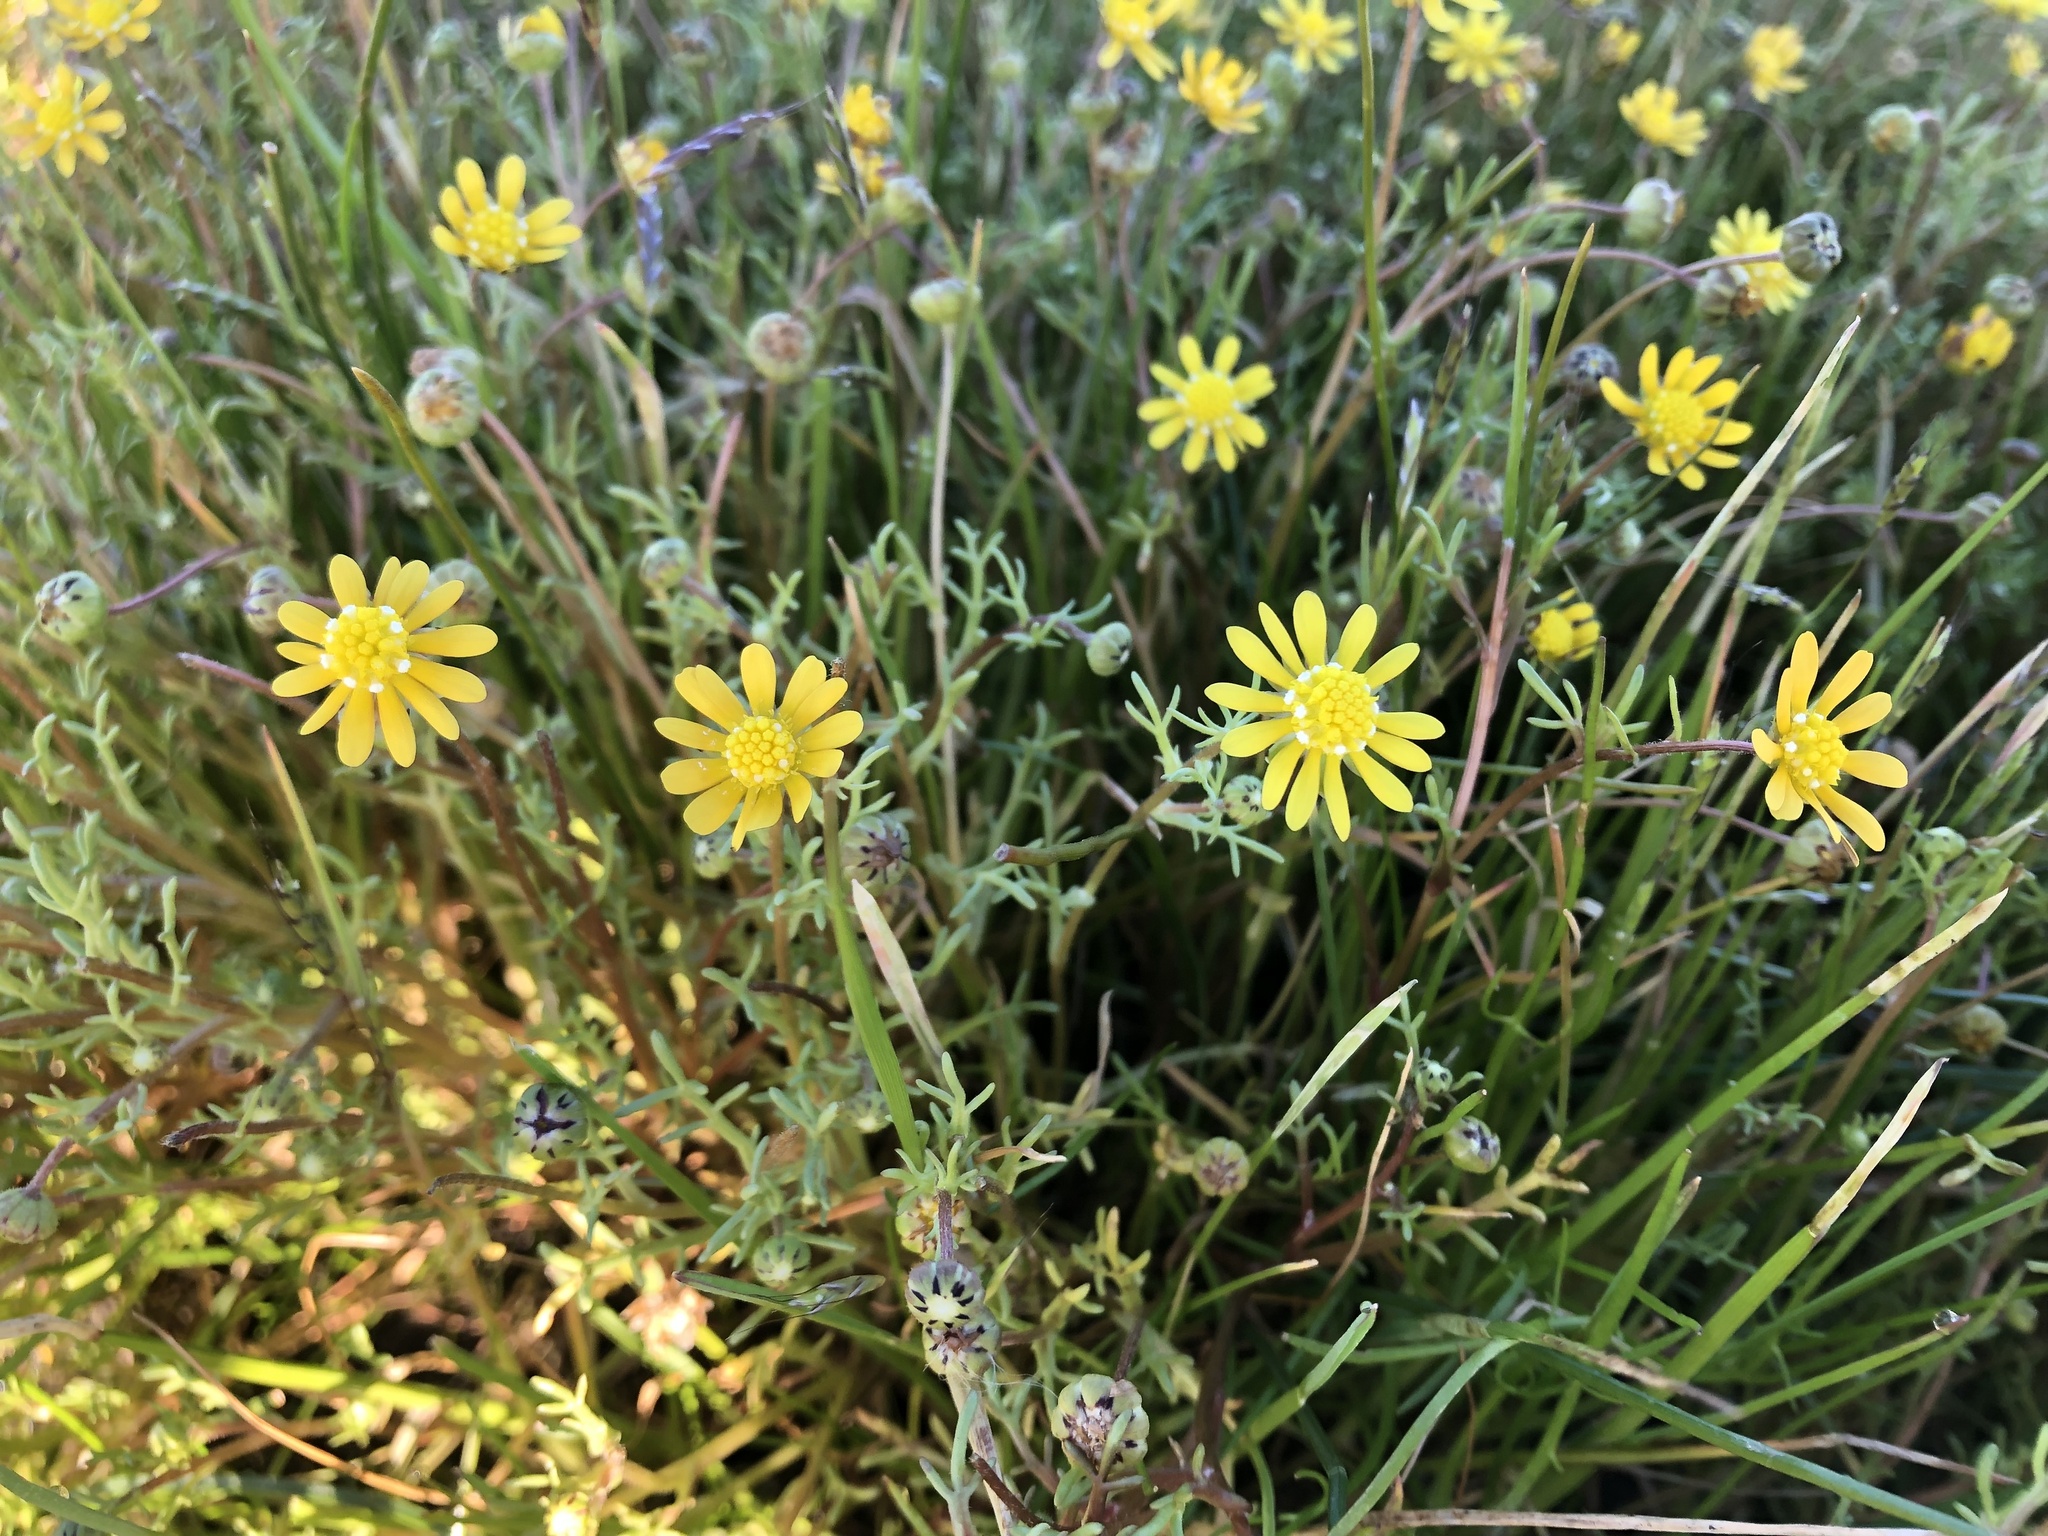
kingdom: Plantae
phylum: Tracheophyta
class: Magnoliopsida
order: Asterales
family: Asteraceae
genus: Blennosperma
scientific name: Blennosperma nanum
